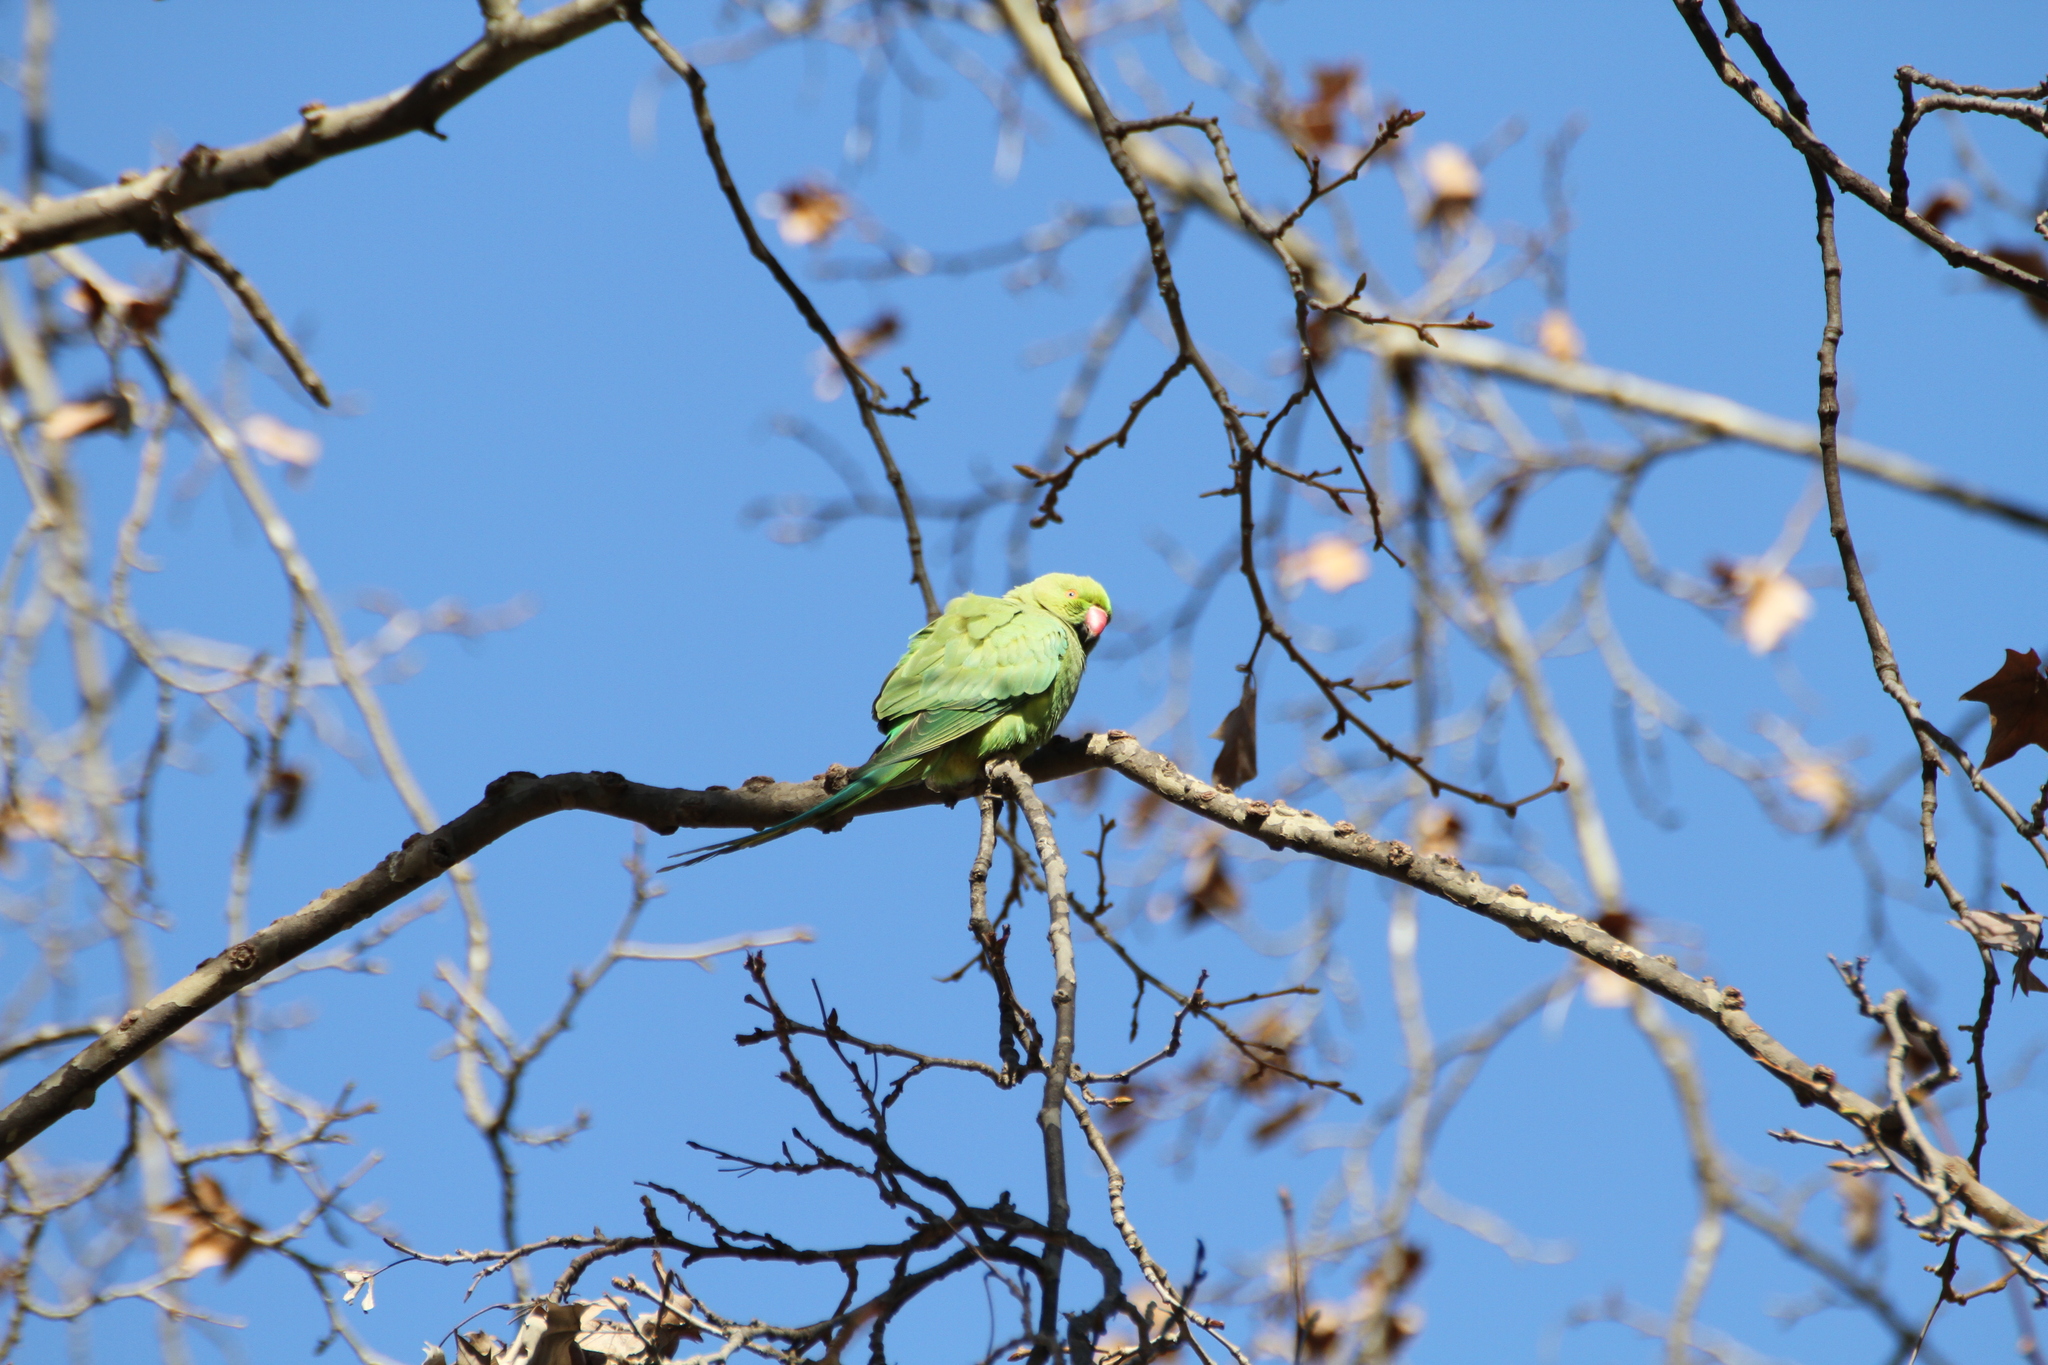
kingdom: Animalia
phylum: Chordata
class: Aves
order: Psittaciformes
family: Psittacidae
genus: Psittacula
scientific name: Psittacula krameri
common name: Rose-ringed parakeet
